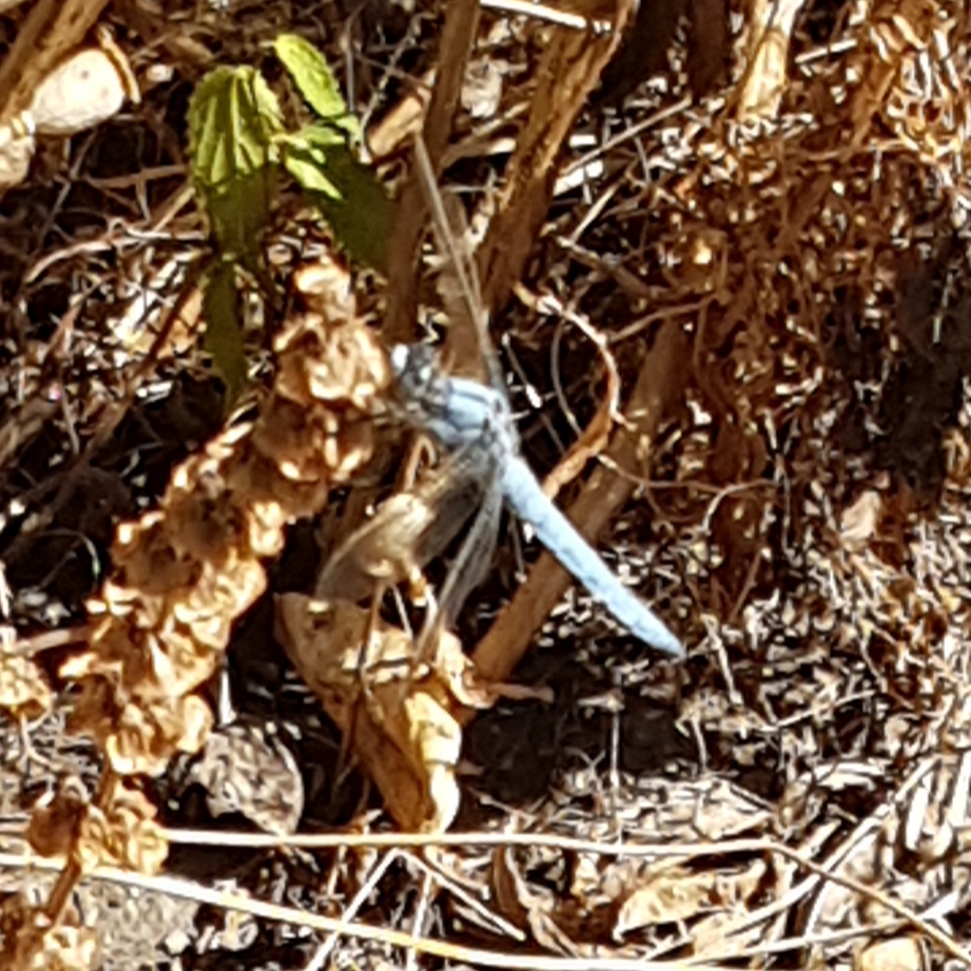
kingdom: Animalia
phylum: Arthropoda
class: Insecta
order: Odonata
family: Libellulidae
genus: Orthetrum
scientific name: Orthetrum brunneum
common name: Southern skimmer
